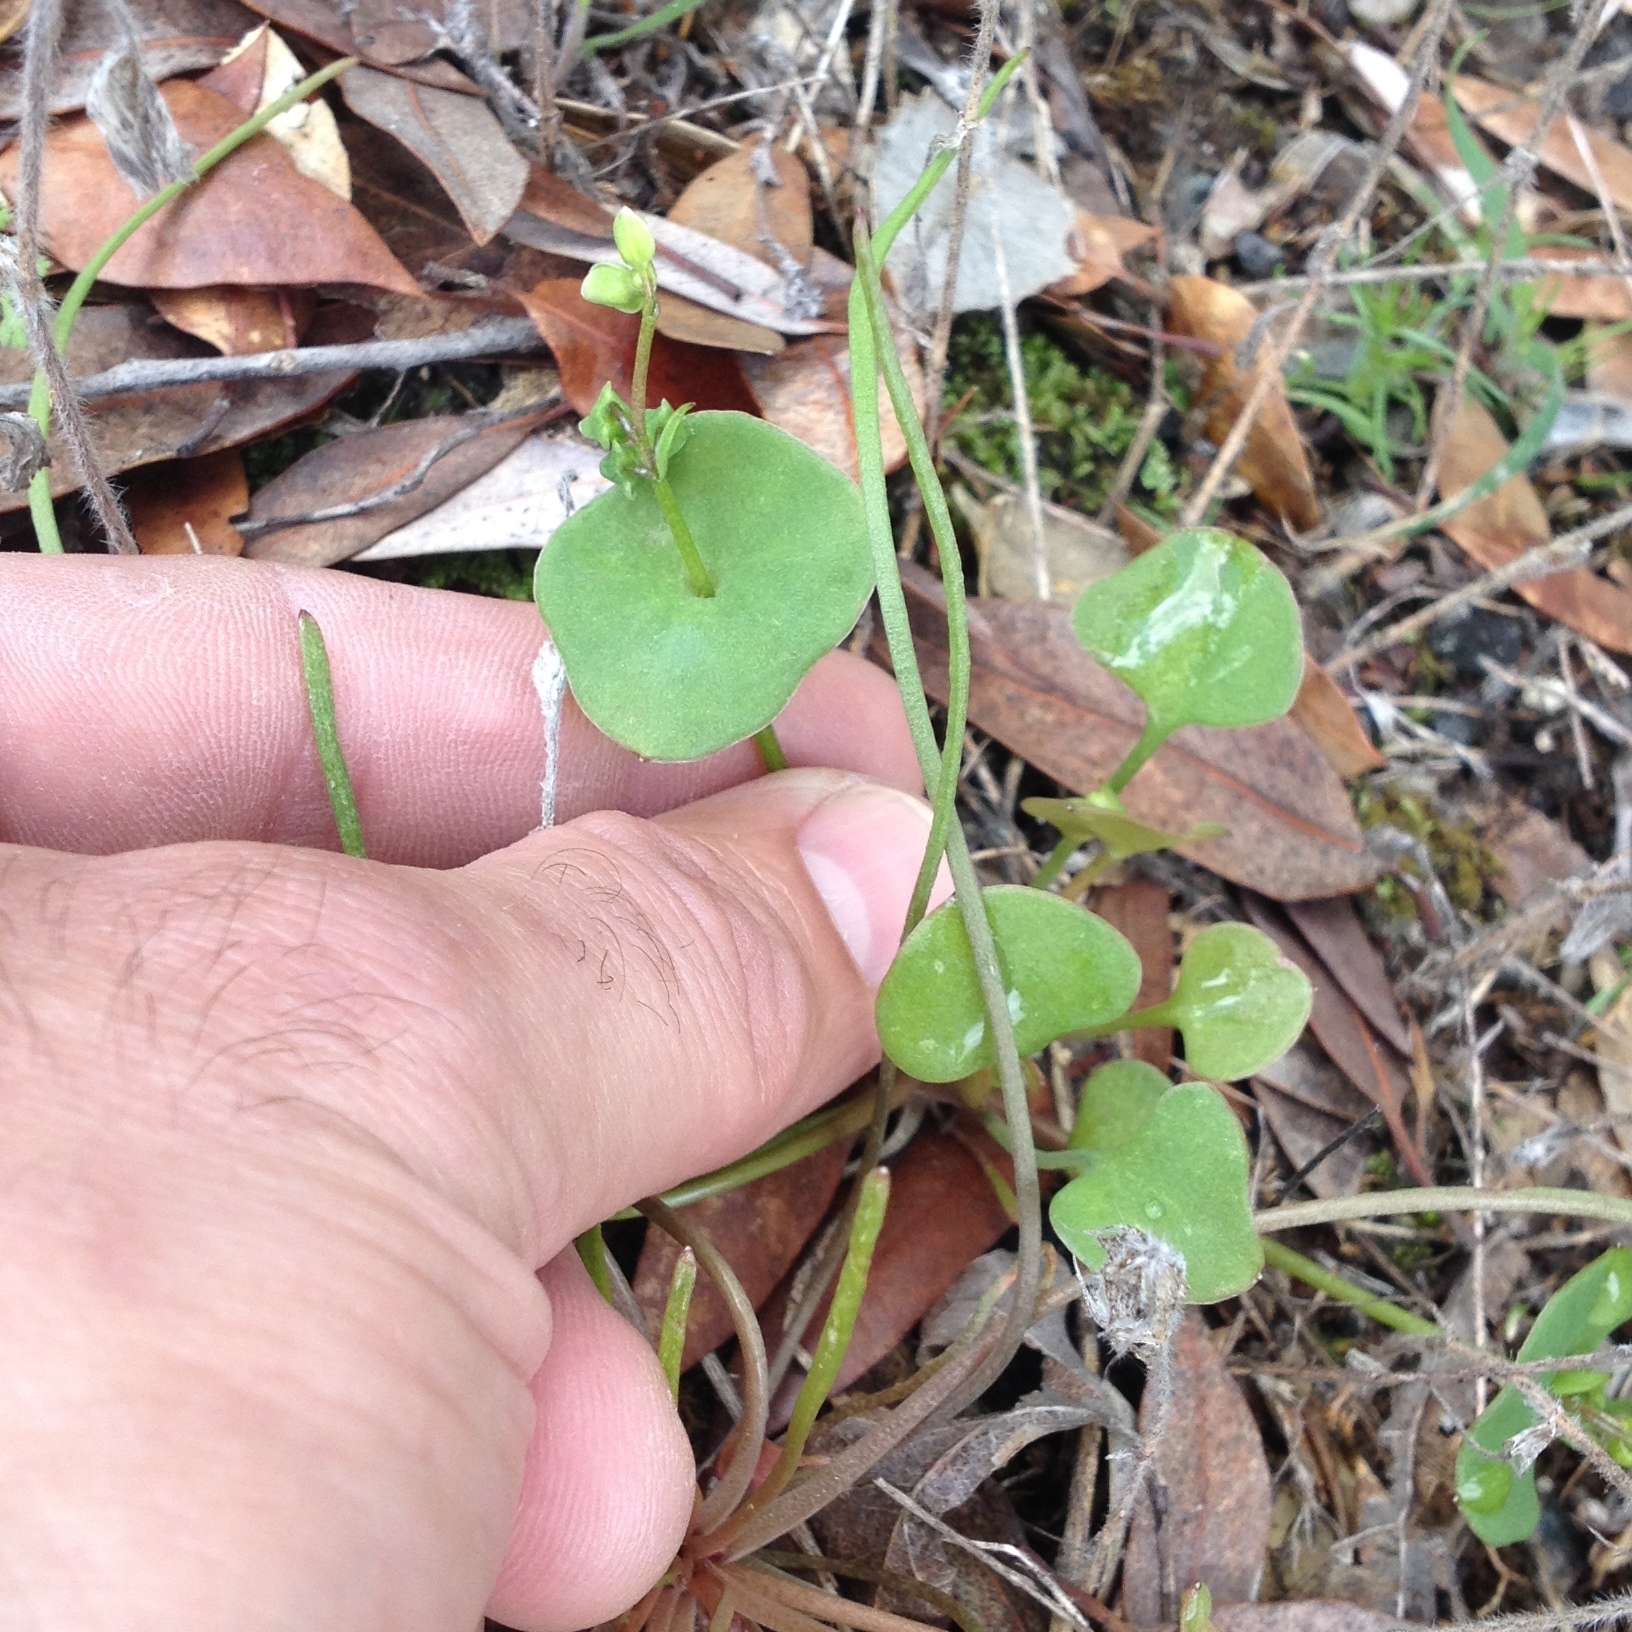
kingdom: Plantae
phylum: Tracheophyta
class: Magnoliopsida
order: Caryophyllales
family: Montiaceae
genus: Claytonia
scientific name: Claytonia perfoliata
